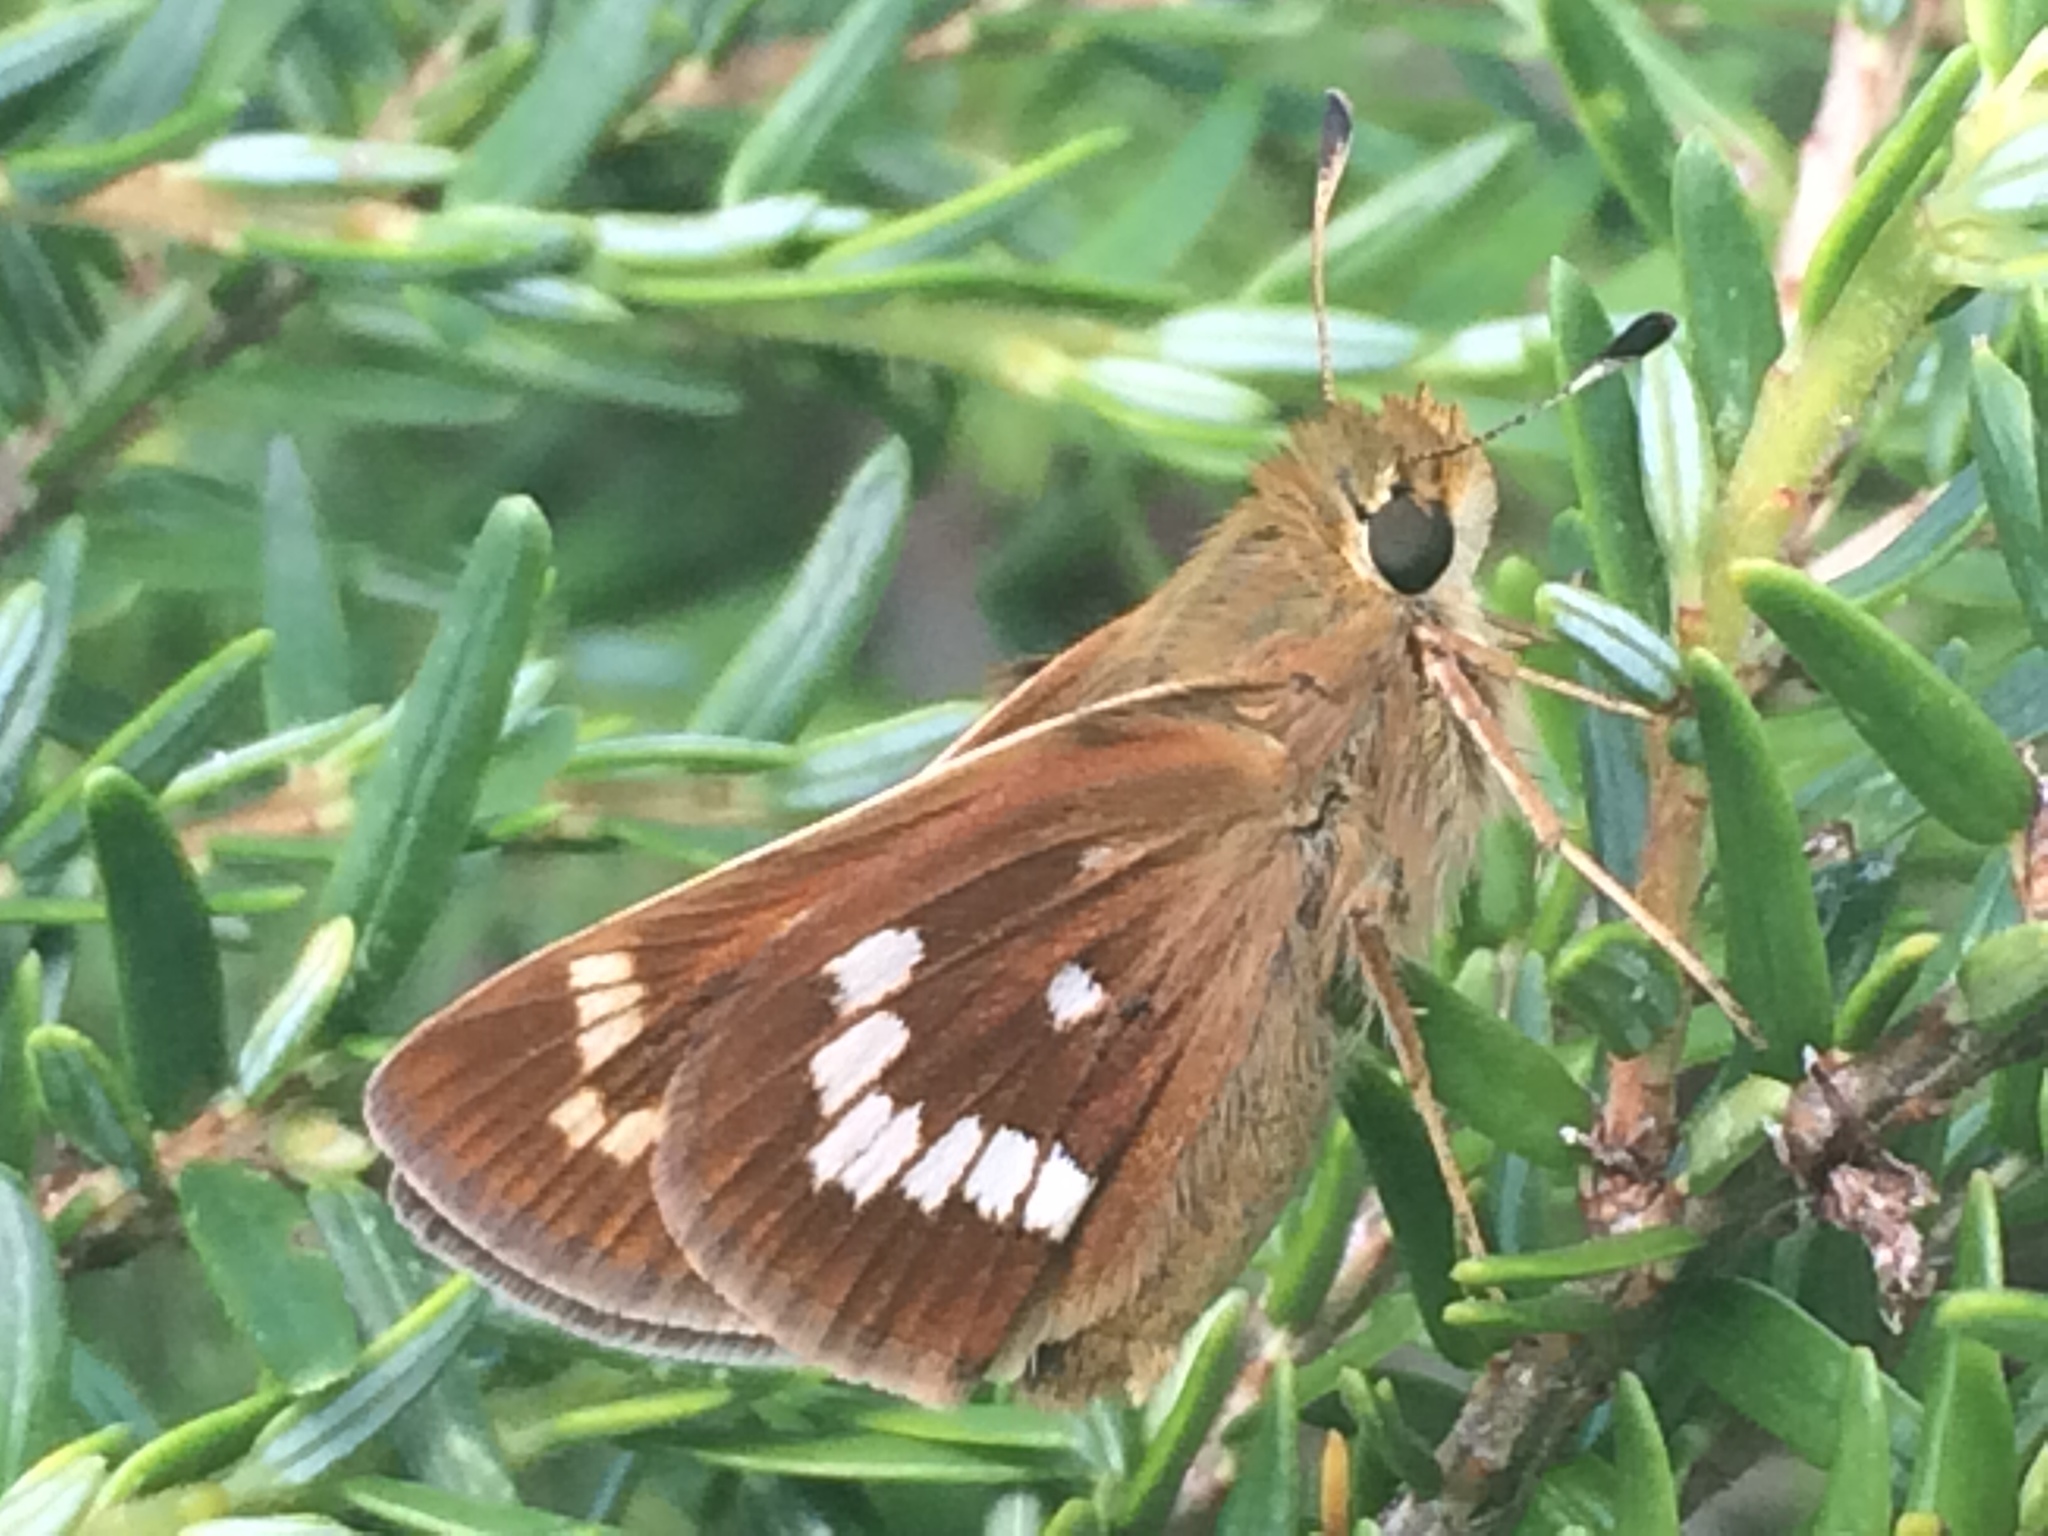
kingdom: Animalia
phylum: Arthropoda
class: Insecta
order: Lepidoptera
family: Hesperiidae
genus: Hesperia
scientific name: Hesperia leonardus
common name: Leonard's skipper
